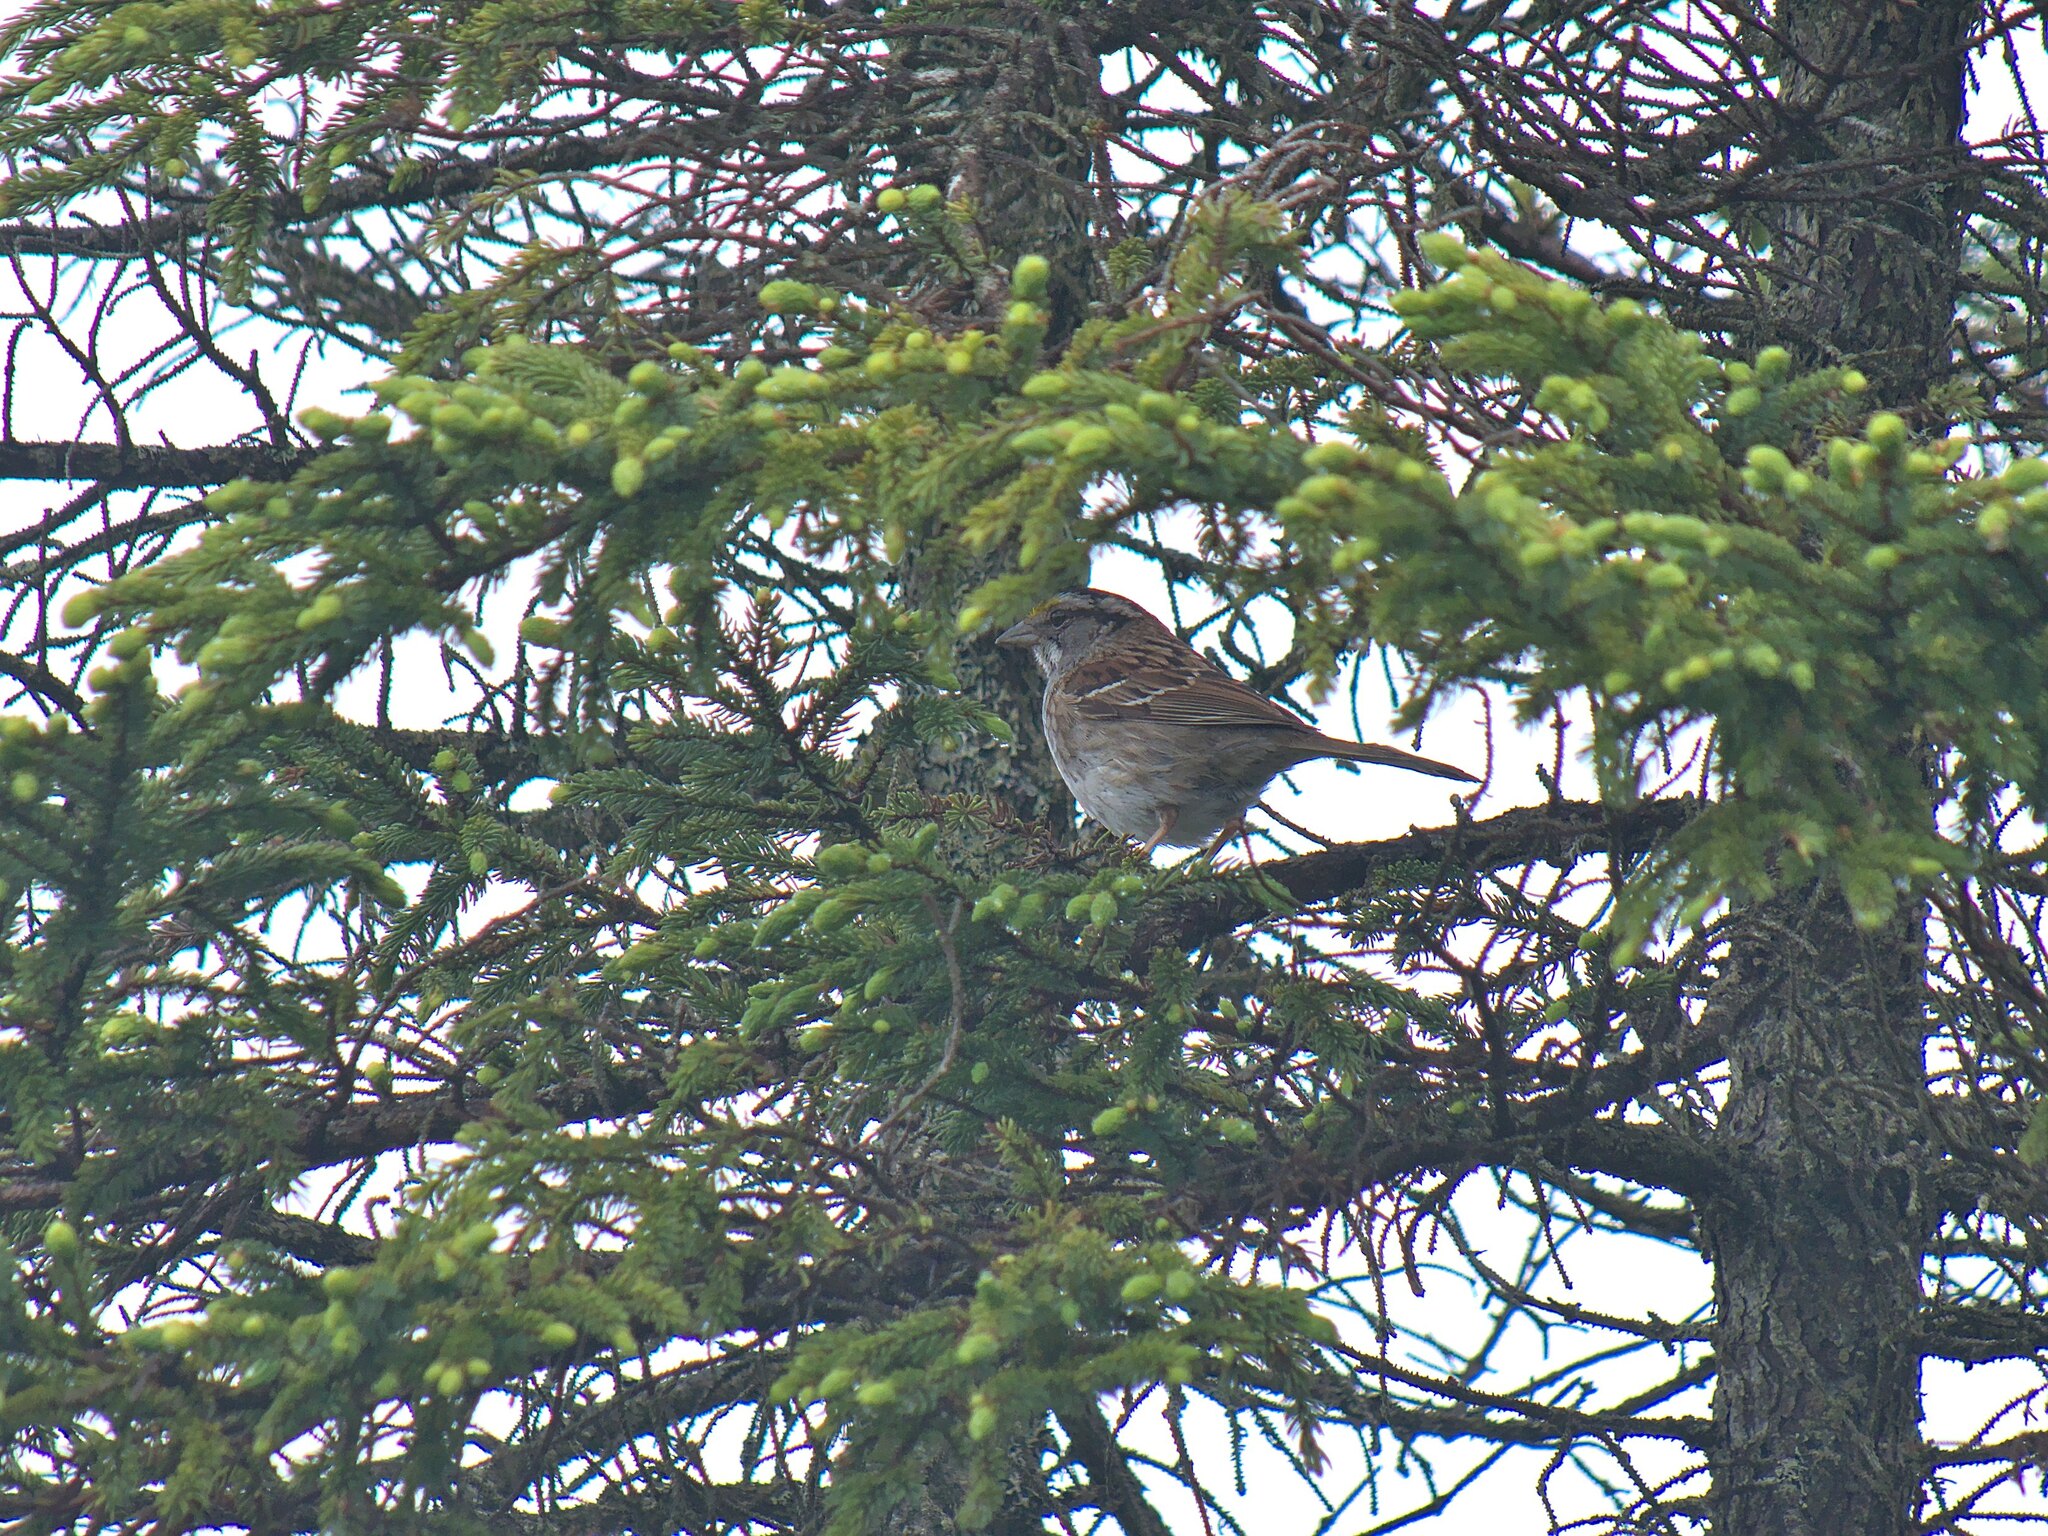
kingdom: Animalia
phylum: Chordata
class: Aves
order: Passeriformes
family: Passerellidae
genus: Zonotrichia
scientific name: Zonotrichia albicollis
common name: White-throated sparrow
